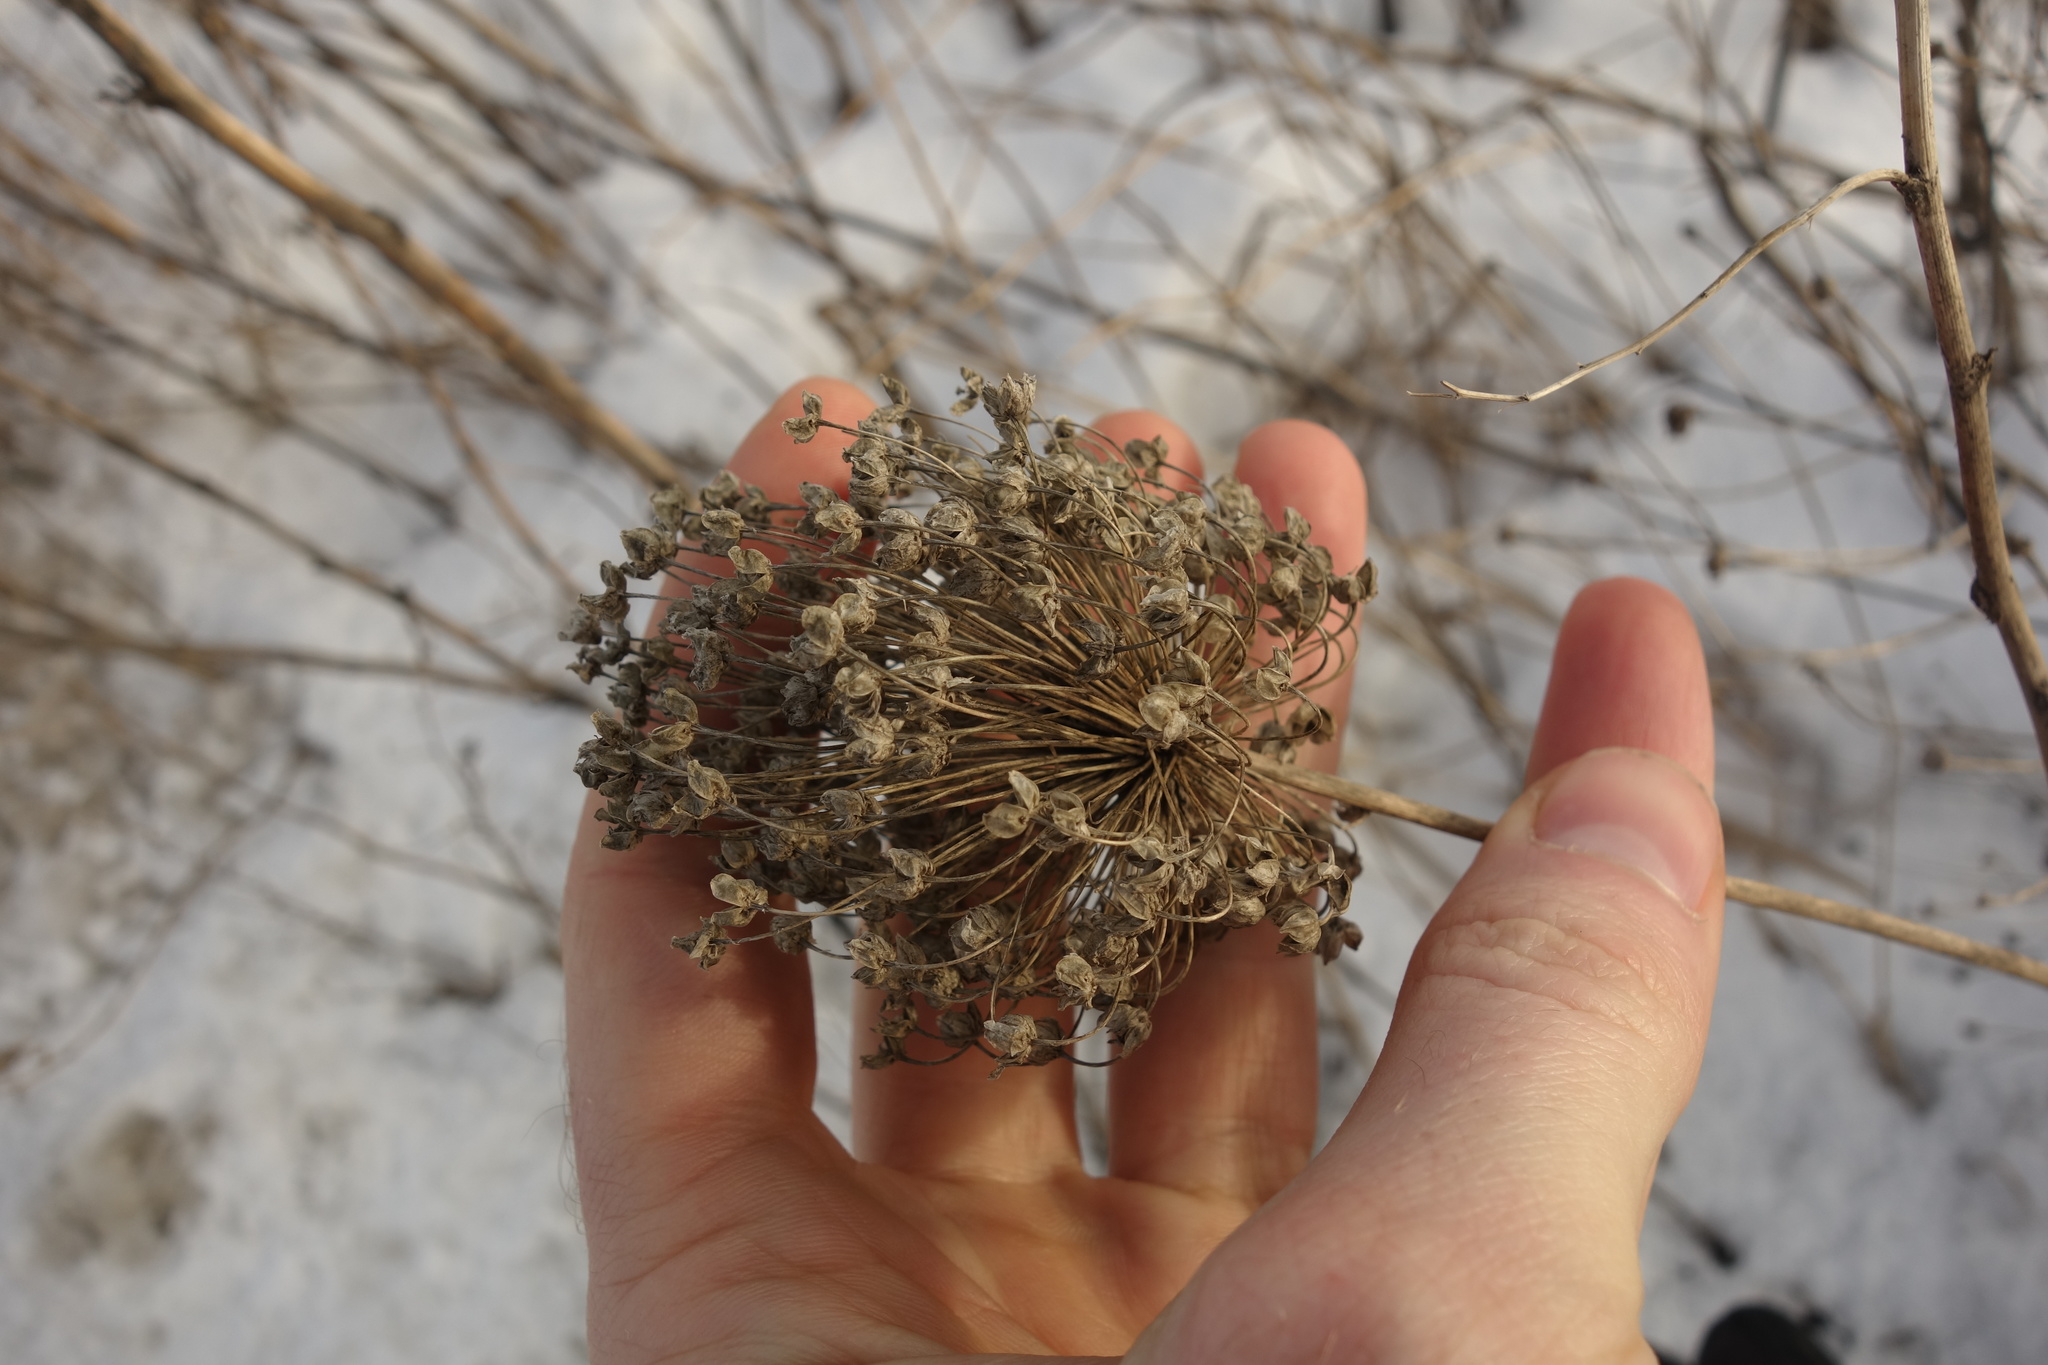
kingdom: Plantae
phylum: Tracheophyta
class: Liliopsida
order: Asparagales
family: Amaryllidaceae
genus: Allium
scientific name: Allium rotundum
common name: Sand leek
